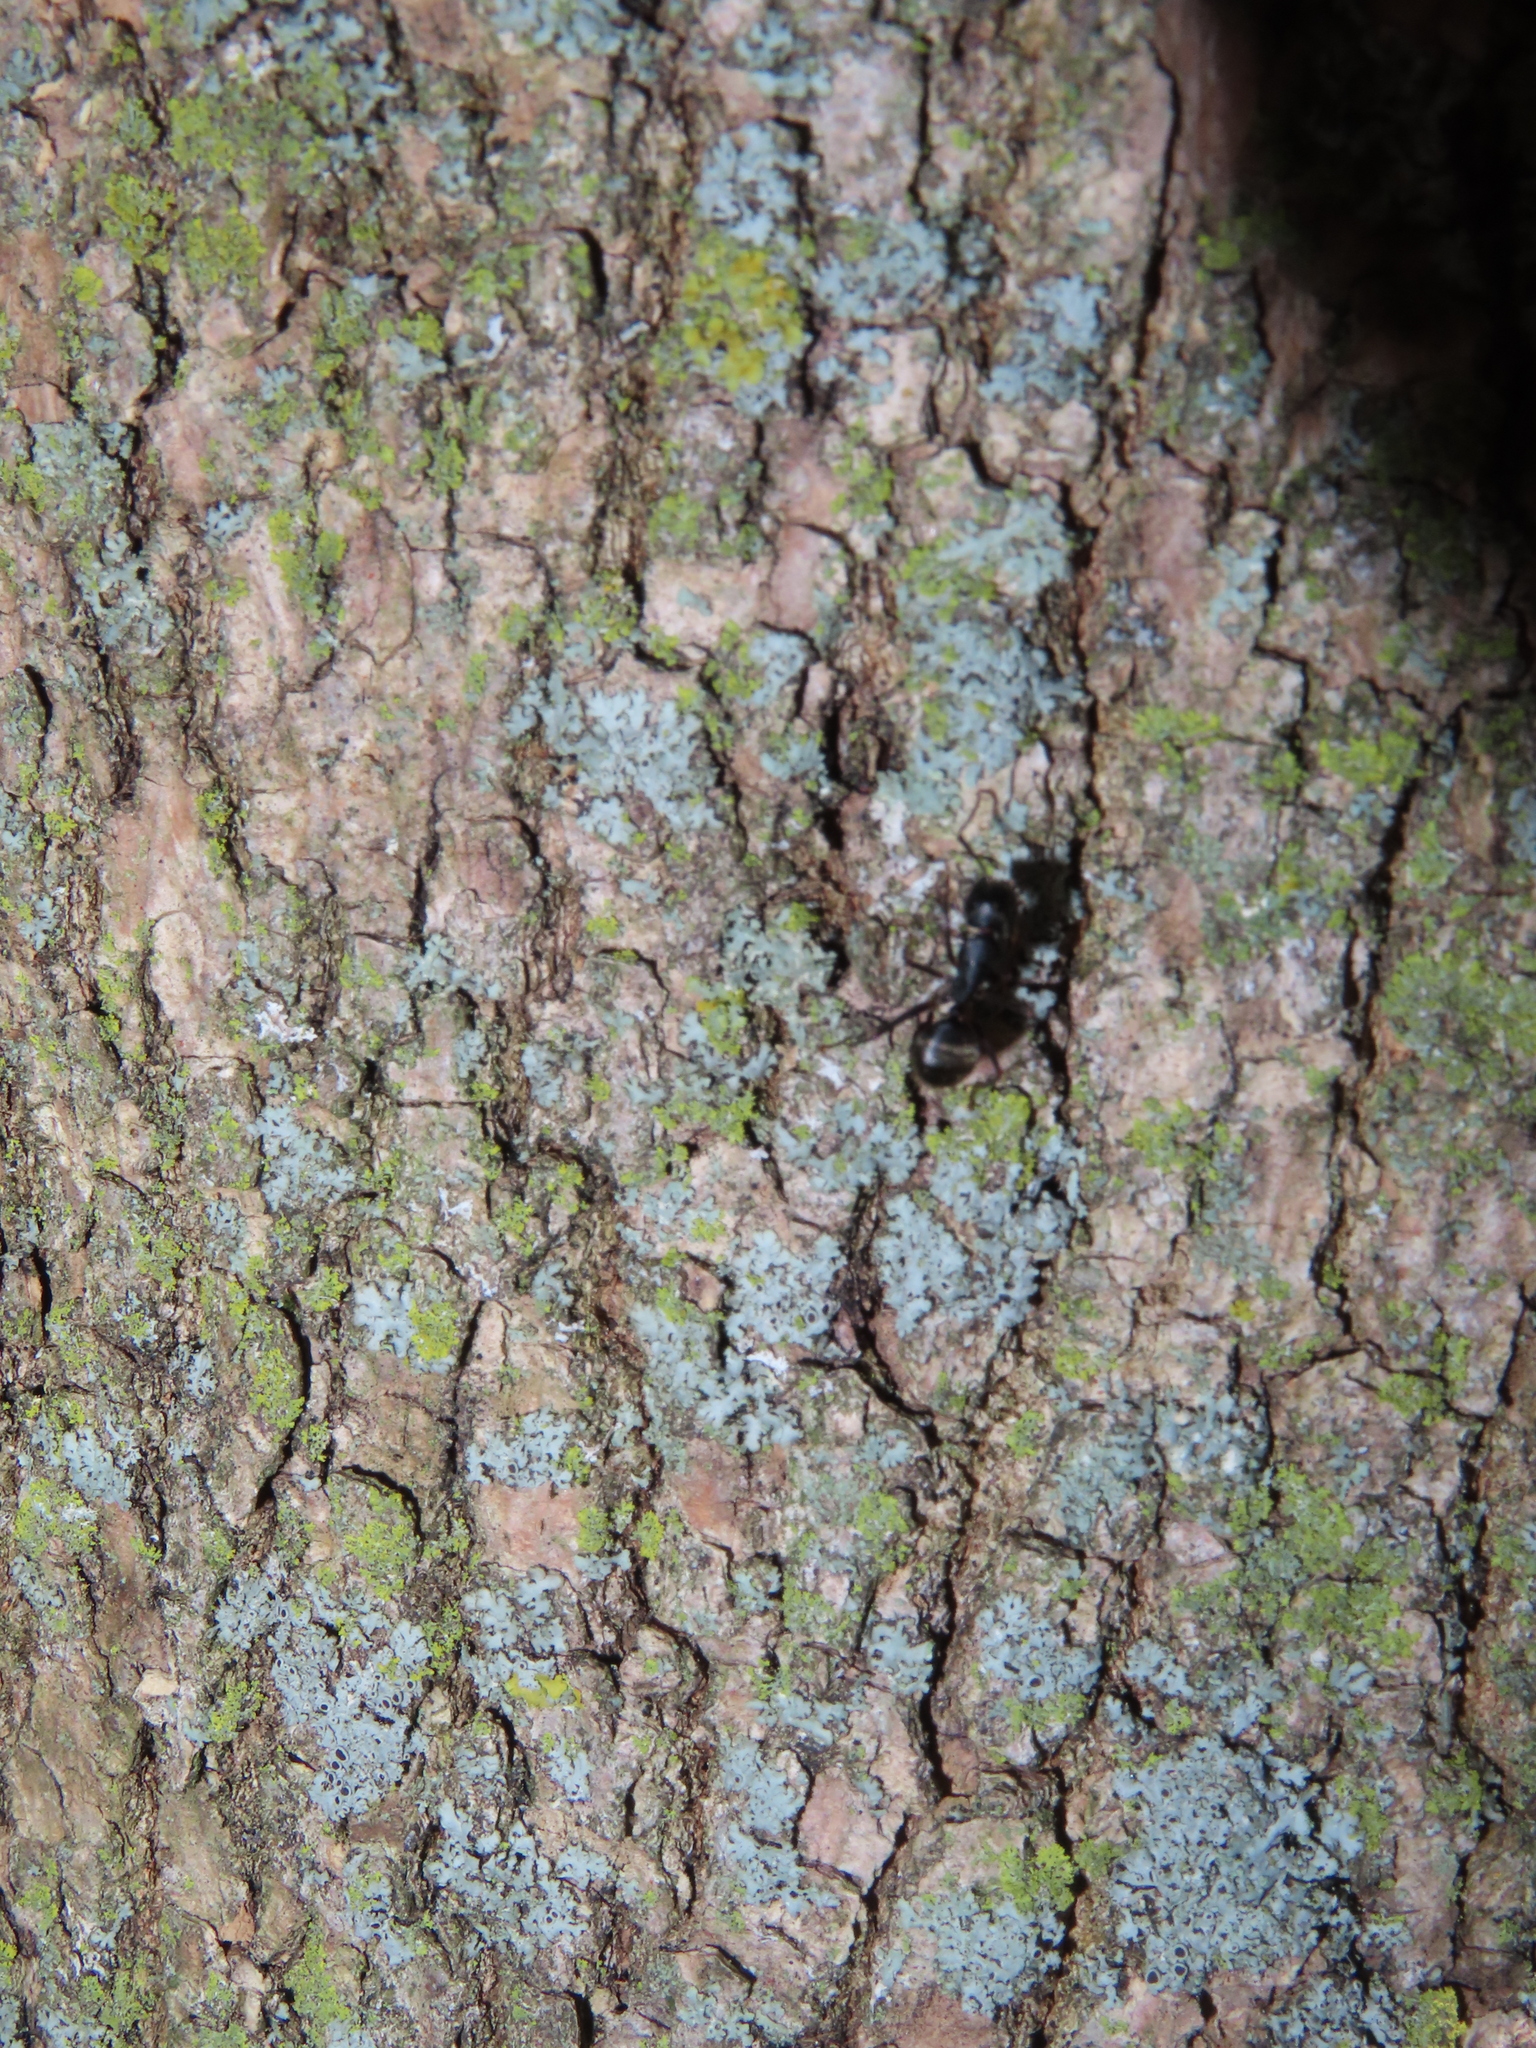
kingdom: Animalia
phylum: Arthropoda
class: Insecta
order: Hymenoptera
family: Formicidae
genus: Camponotus
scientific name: Camponotus pennsylvanicus
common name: Black carpenter ant
